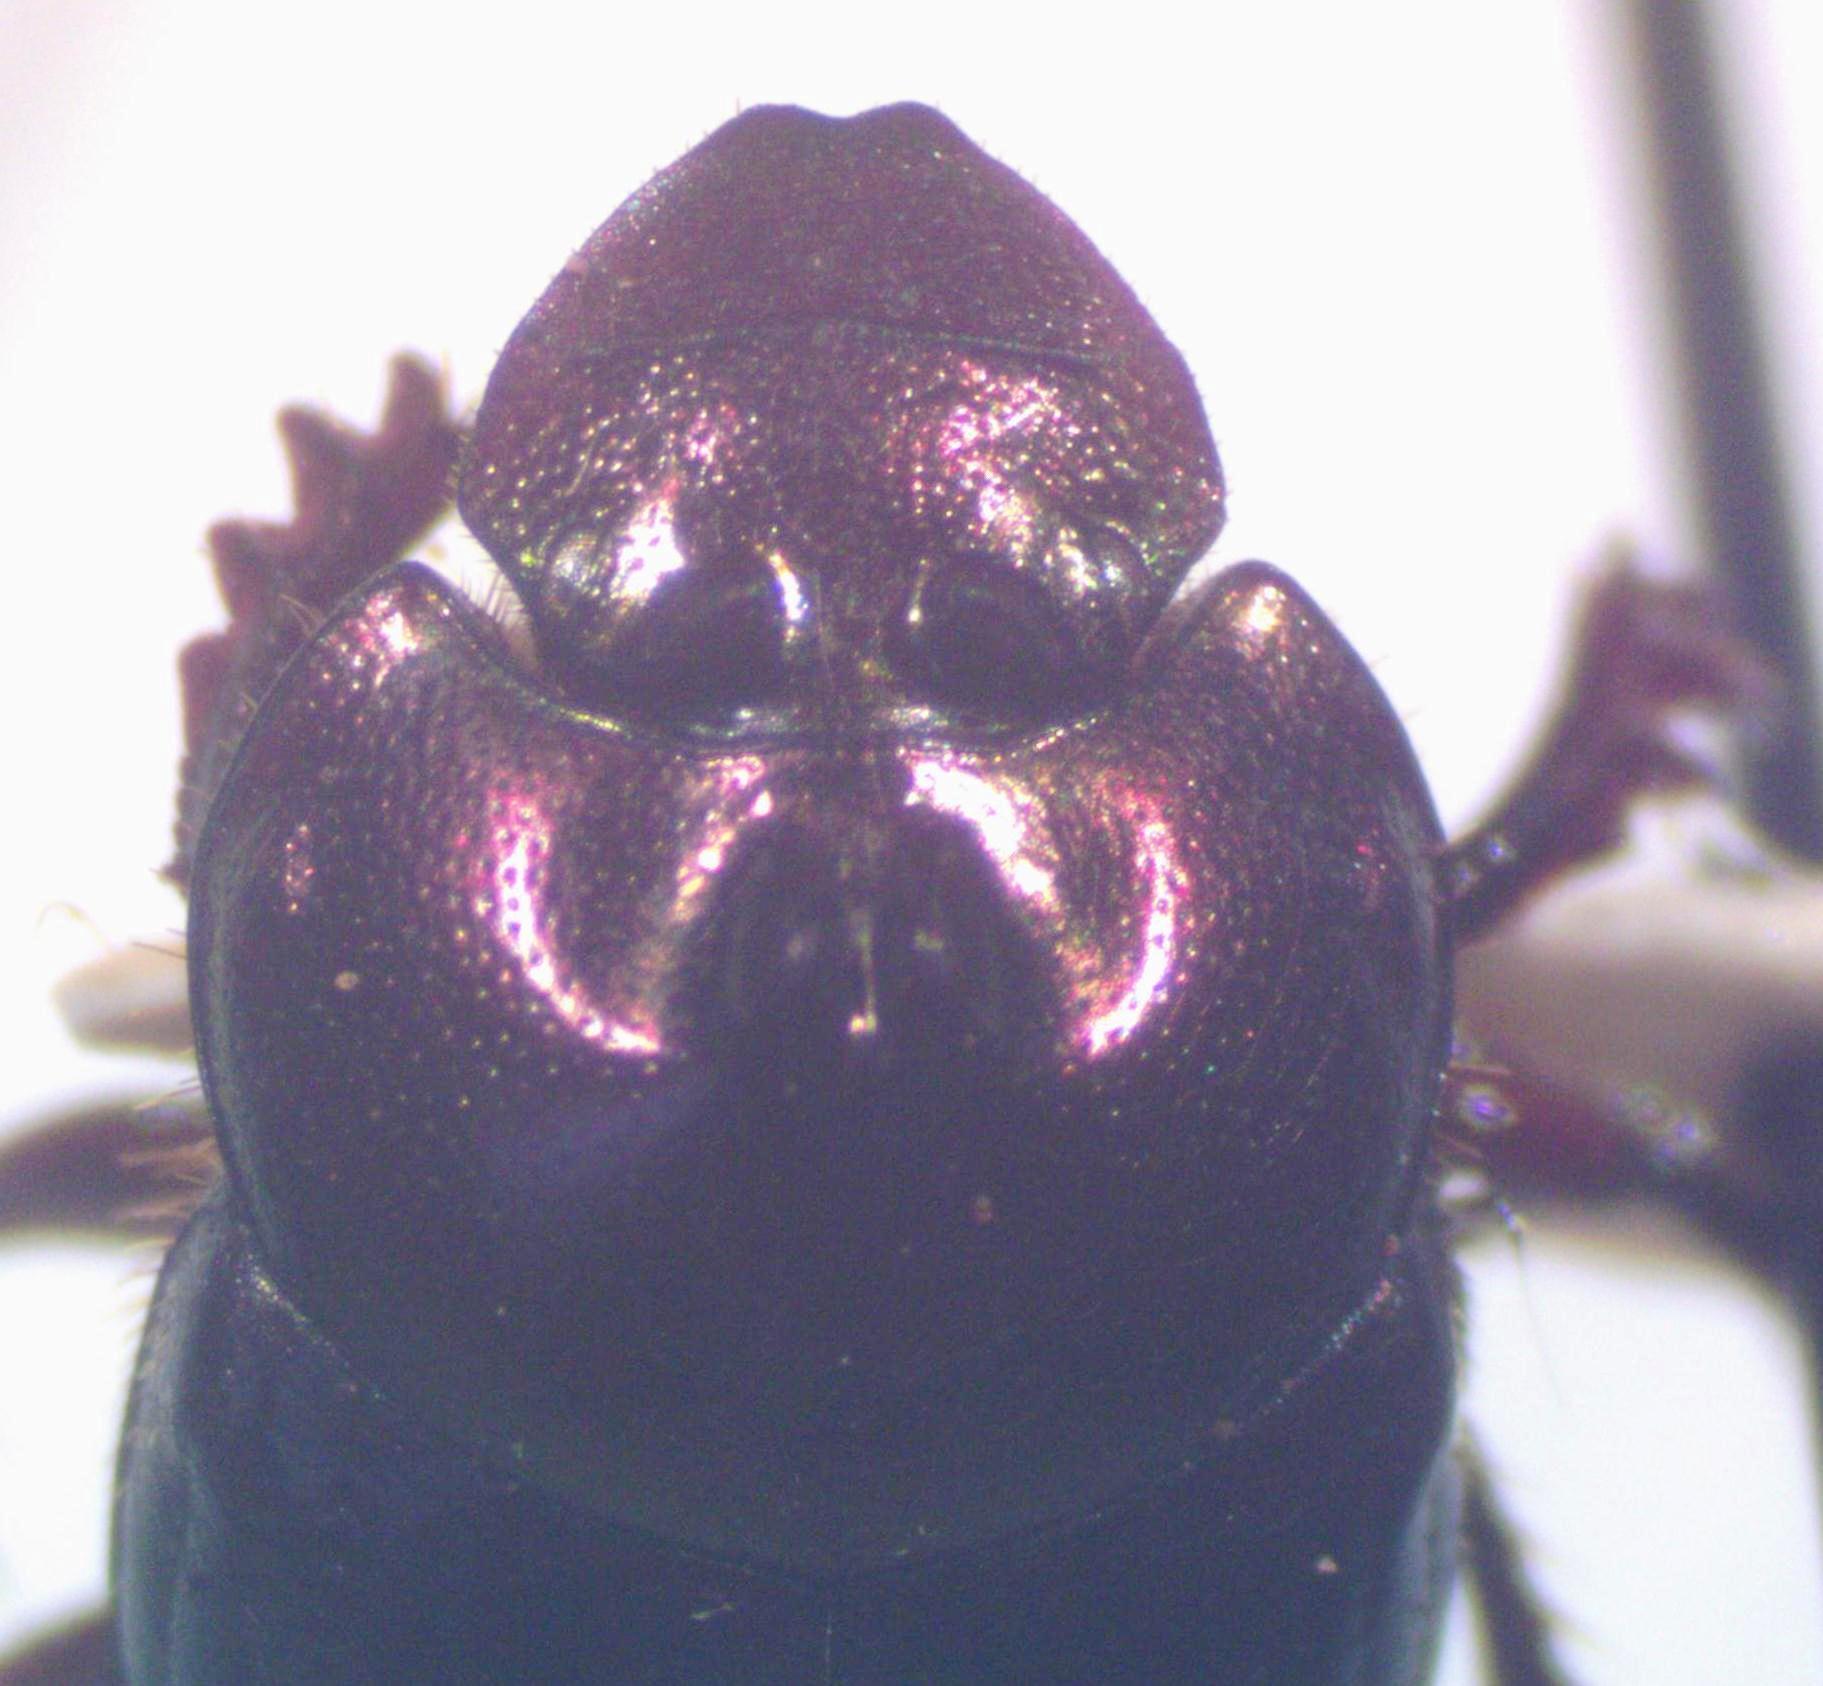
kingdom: Animalia
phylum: Arthropoda
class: Insecta
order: Coleoptera
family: Scarabaeidae
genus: Onthophagus
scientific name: Onthophagus praecellens
